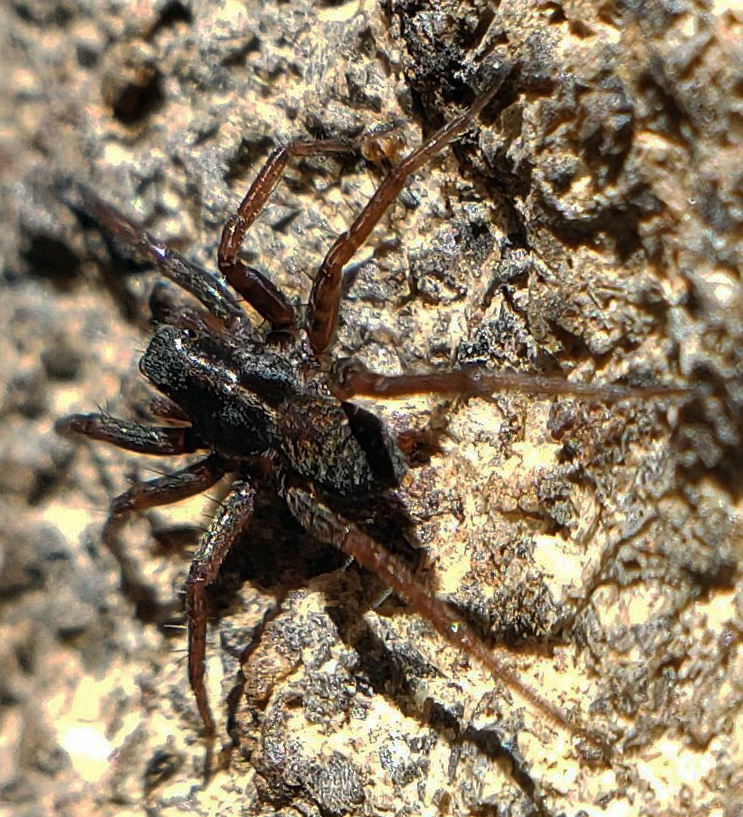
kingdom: Animalia
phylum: Arthropoda
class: Arachnida
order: Araneae
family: Lycosidae
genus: Pardosa
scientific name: Pardosa
